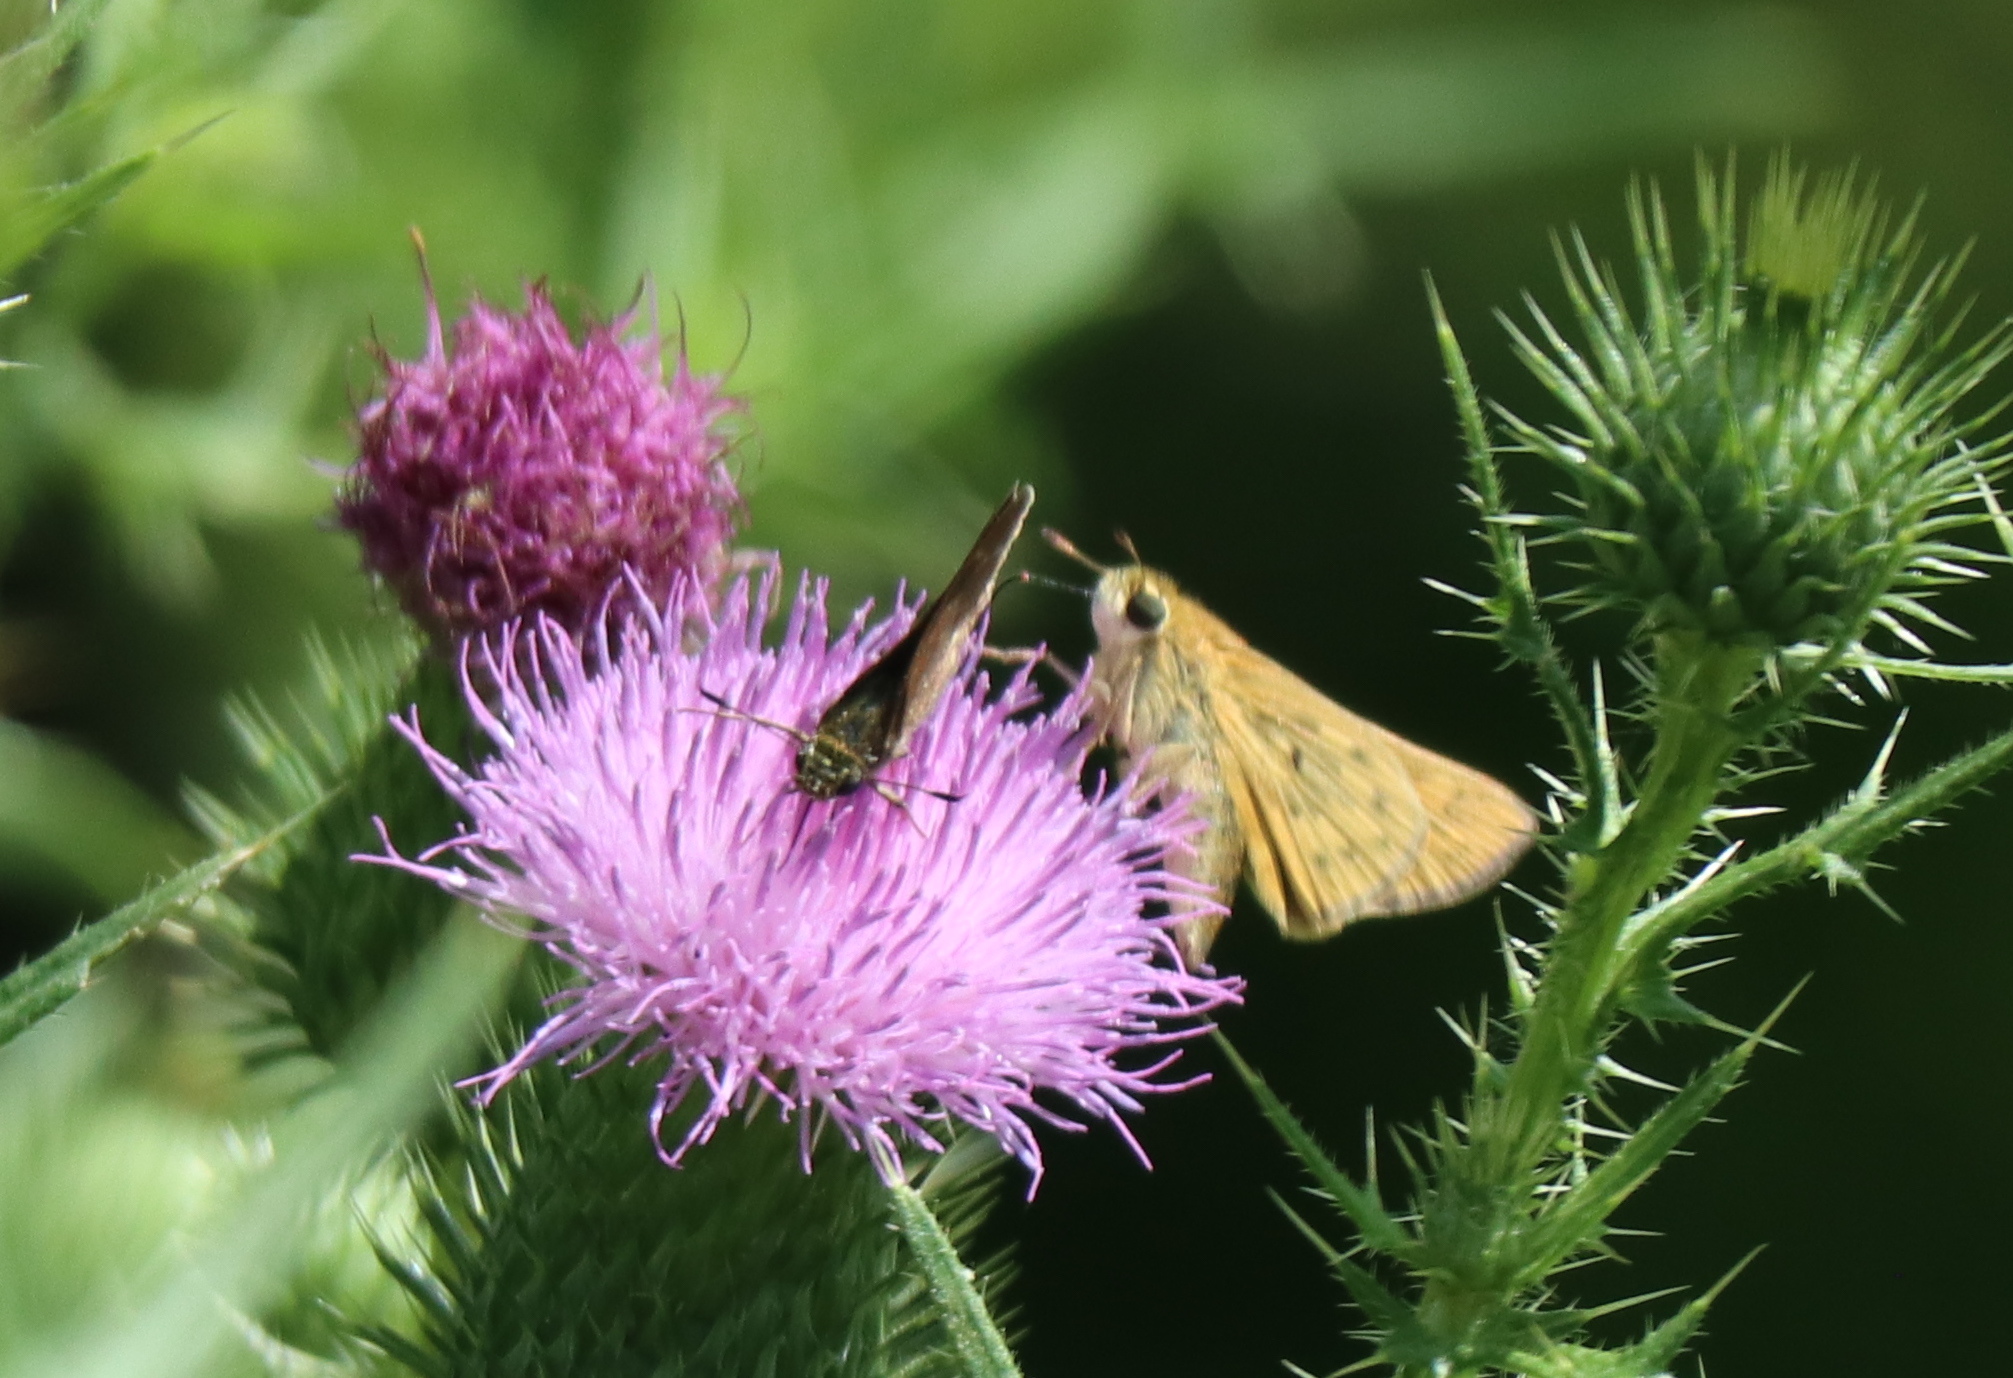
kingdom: Animalia
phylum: Arthropoda
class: Insecta
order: Lepidoptera
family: Hesperiidae
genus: Hylephila
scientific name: Hylephila phyleus
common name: Fiery skipper
